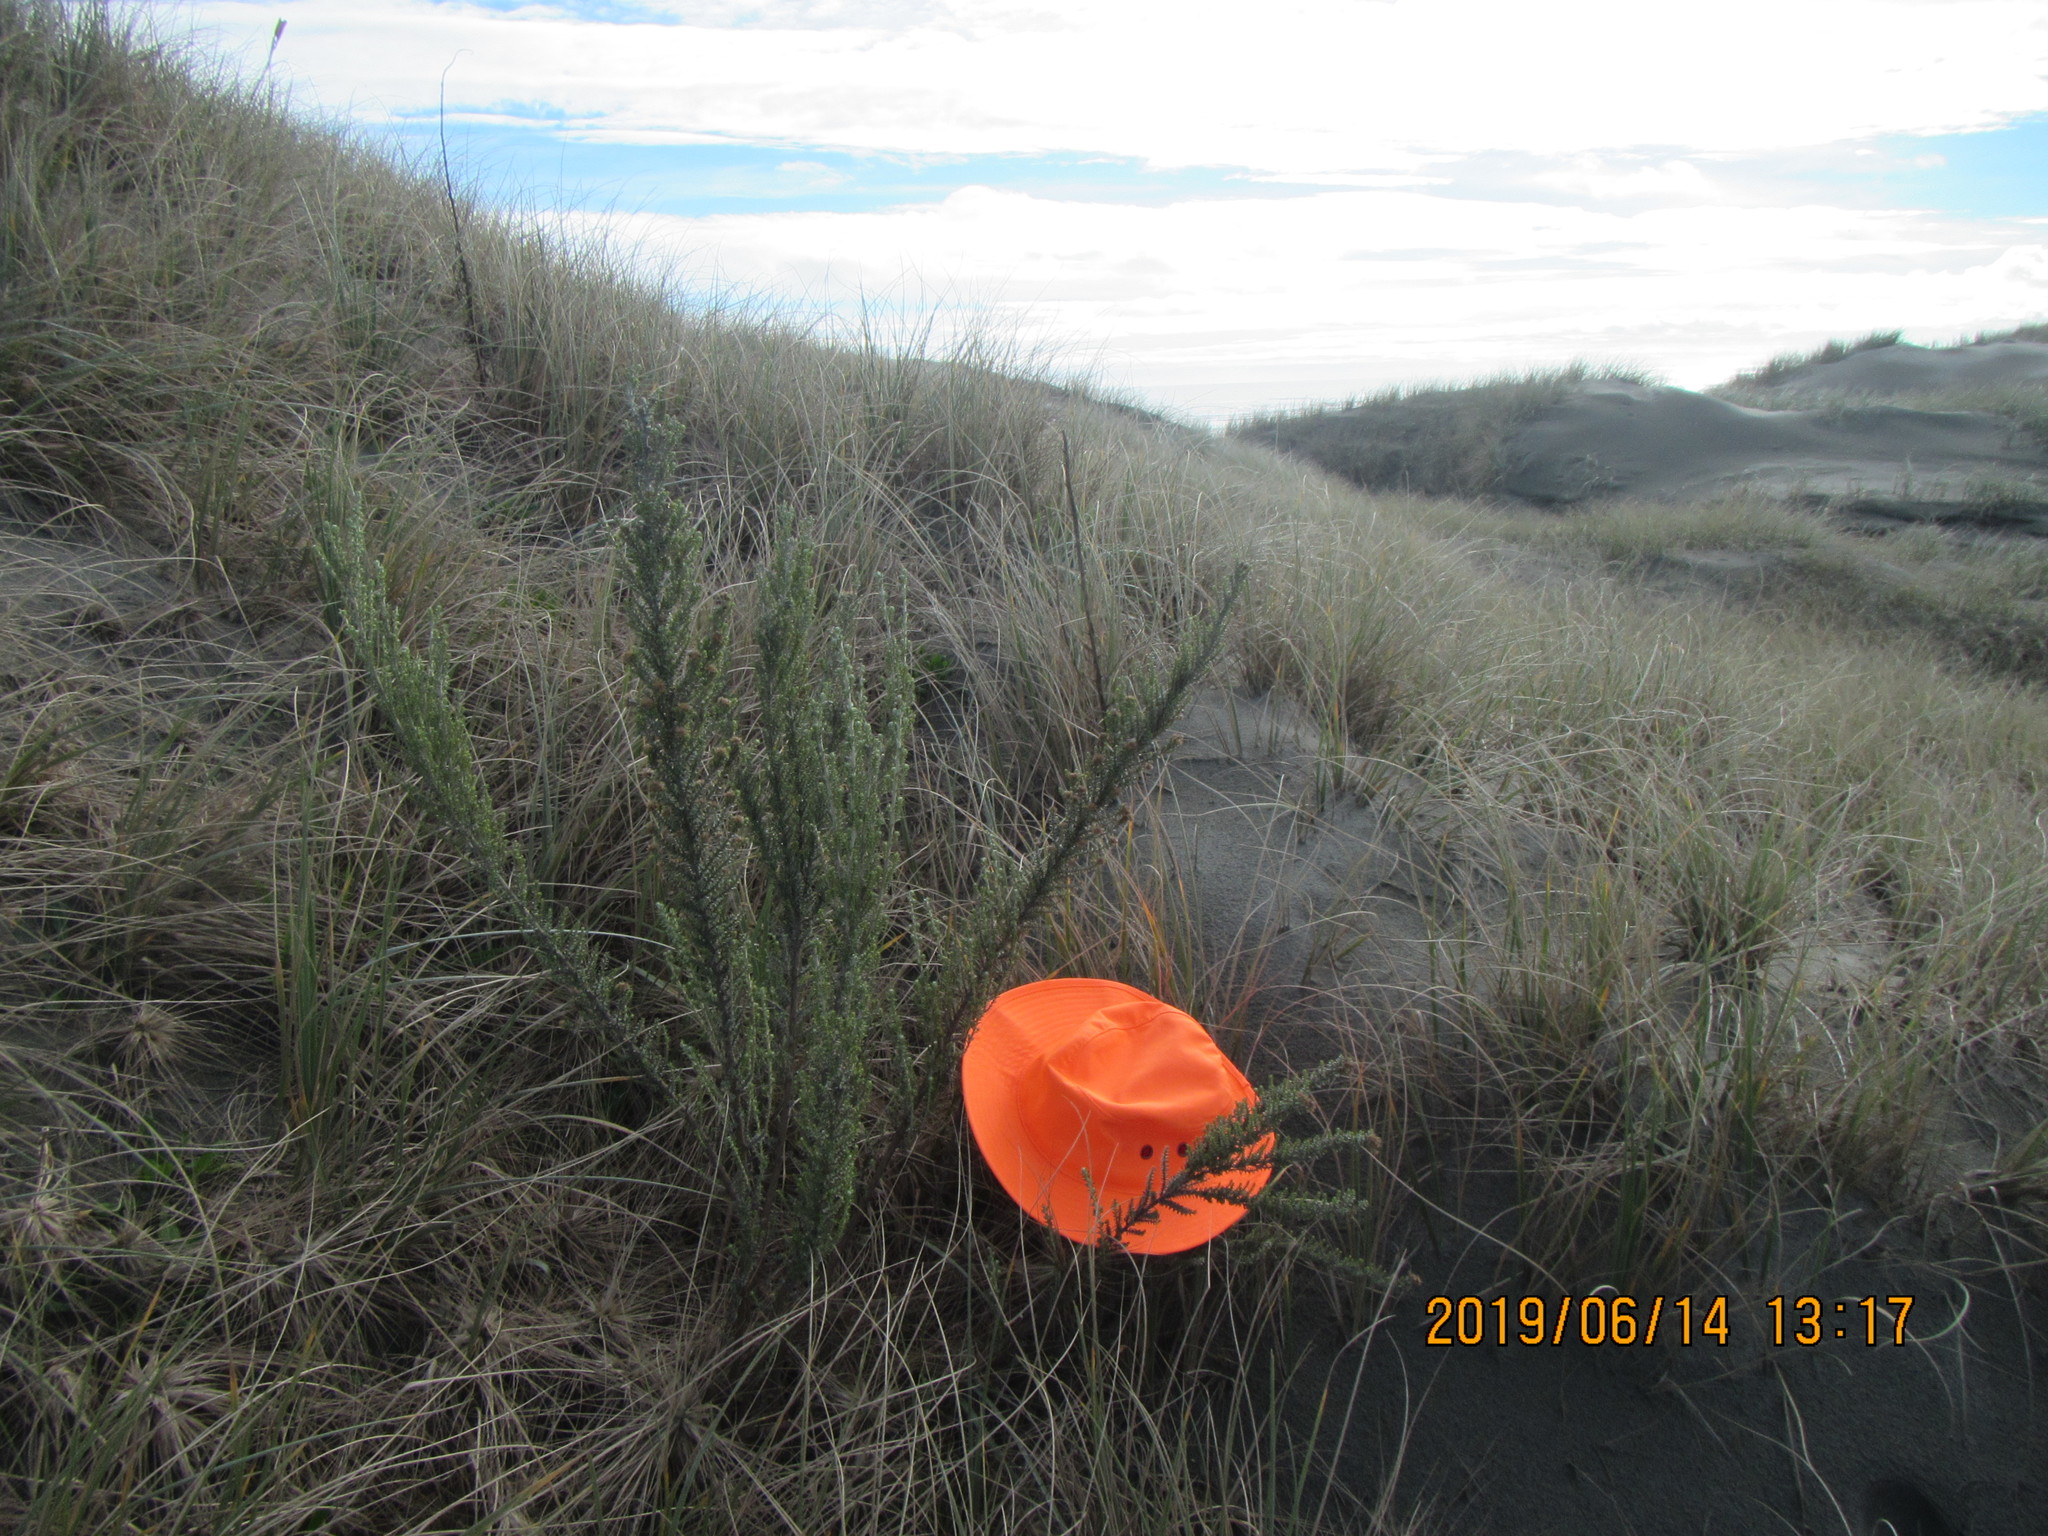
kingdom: Plantae
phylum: Tracheophyta
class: Magnoliopsida
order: Asterales
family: Asteraceae
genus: Ozothamnus
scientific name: Ozothamnus leptophyllus
